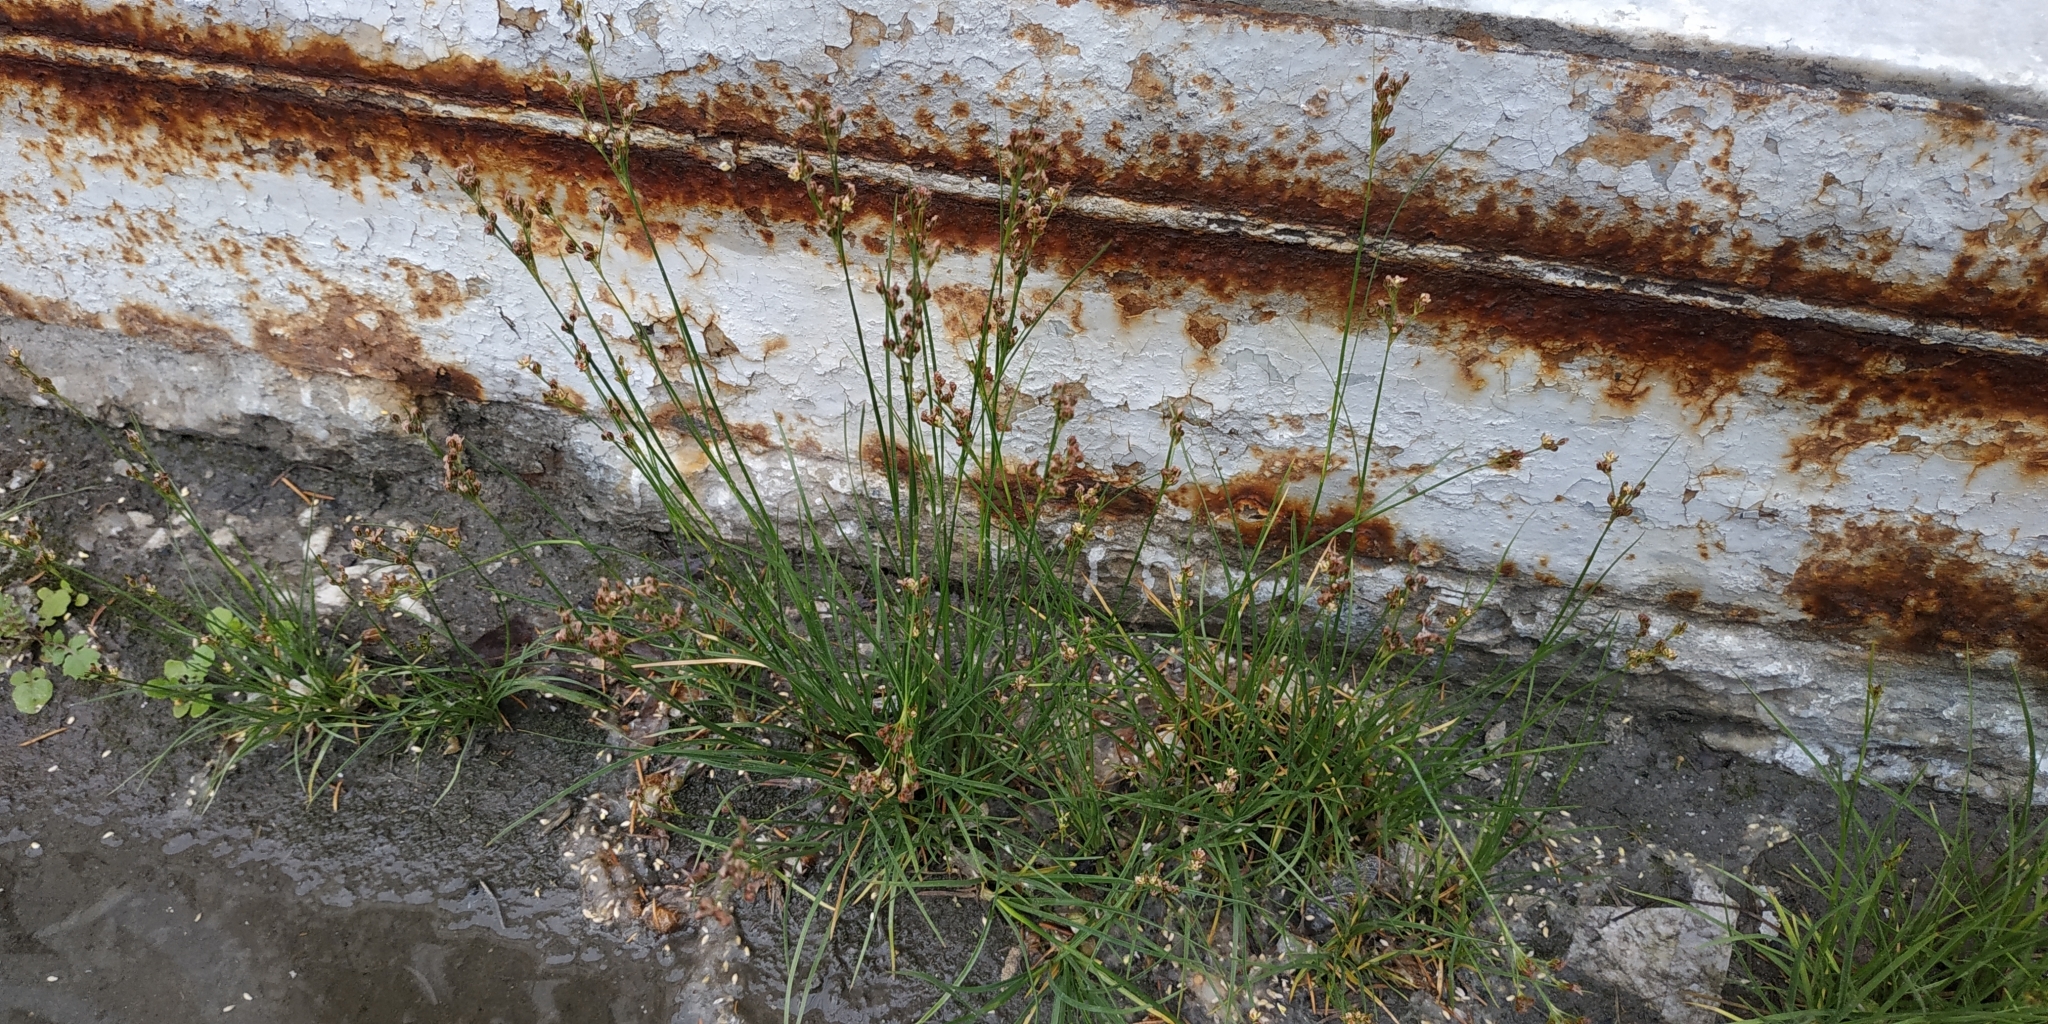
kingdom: Plantae
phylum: Tracheophyta
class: Liliopsida
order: Poales
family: Juncaceae
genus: Juncus
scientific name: Juncus compressus
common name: Round-fruited rush
